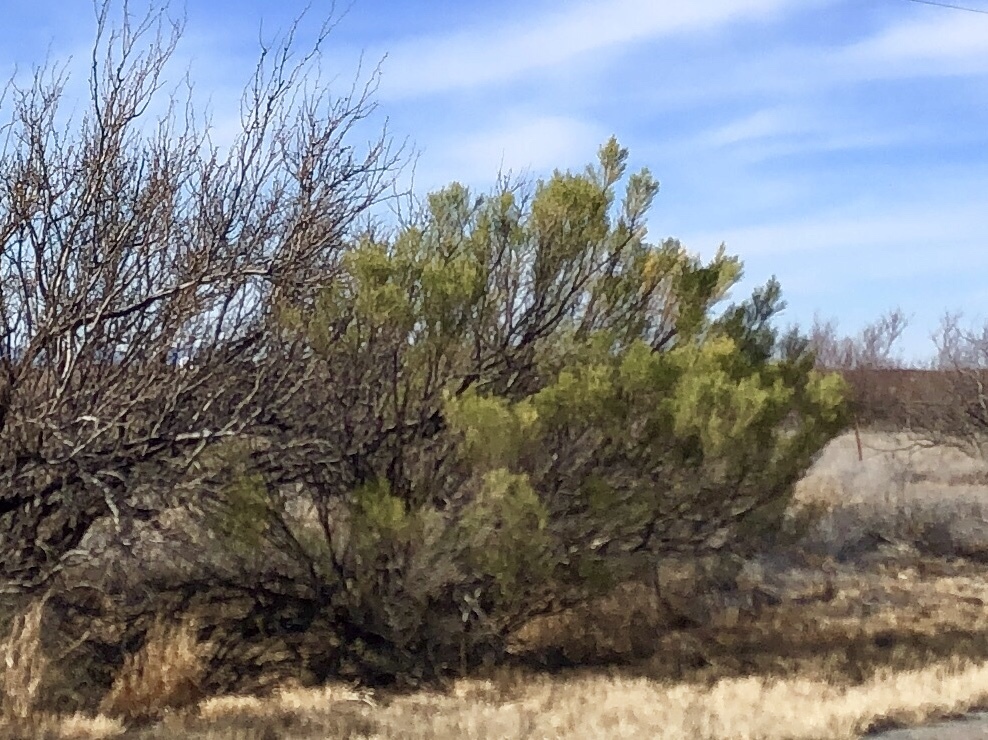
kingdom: Plantae
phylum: Tracheophyta
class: Magnoliopsida
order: Asterales
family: Asteraceae
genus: Baccharis
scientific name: Baccharis sarothroides
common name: Desert-broom
